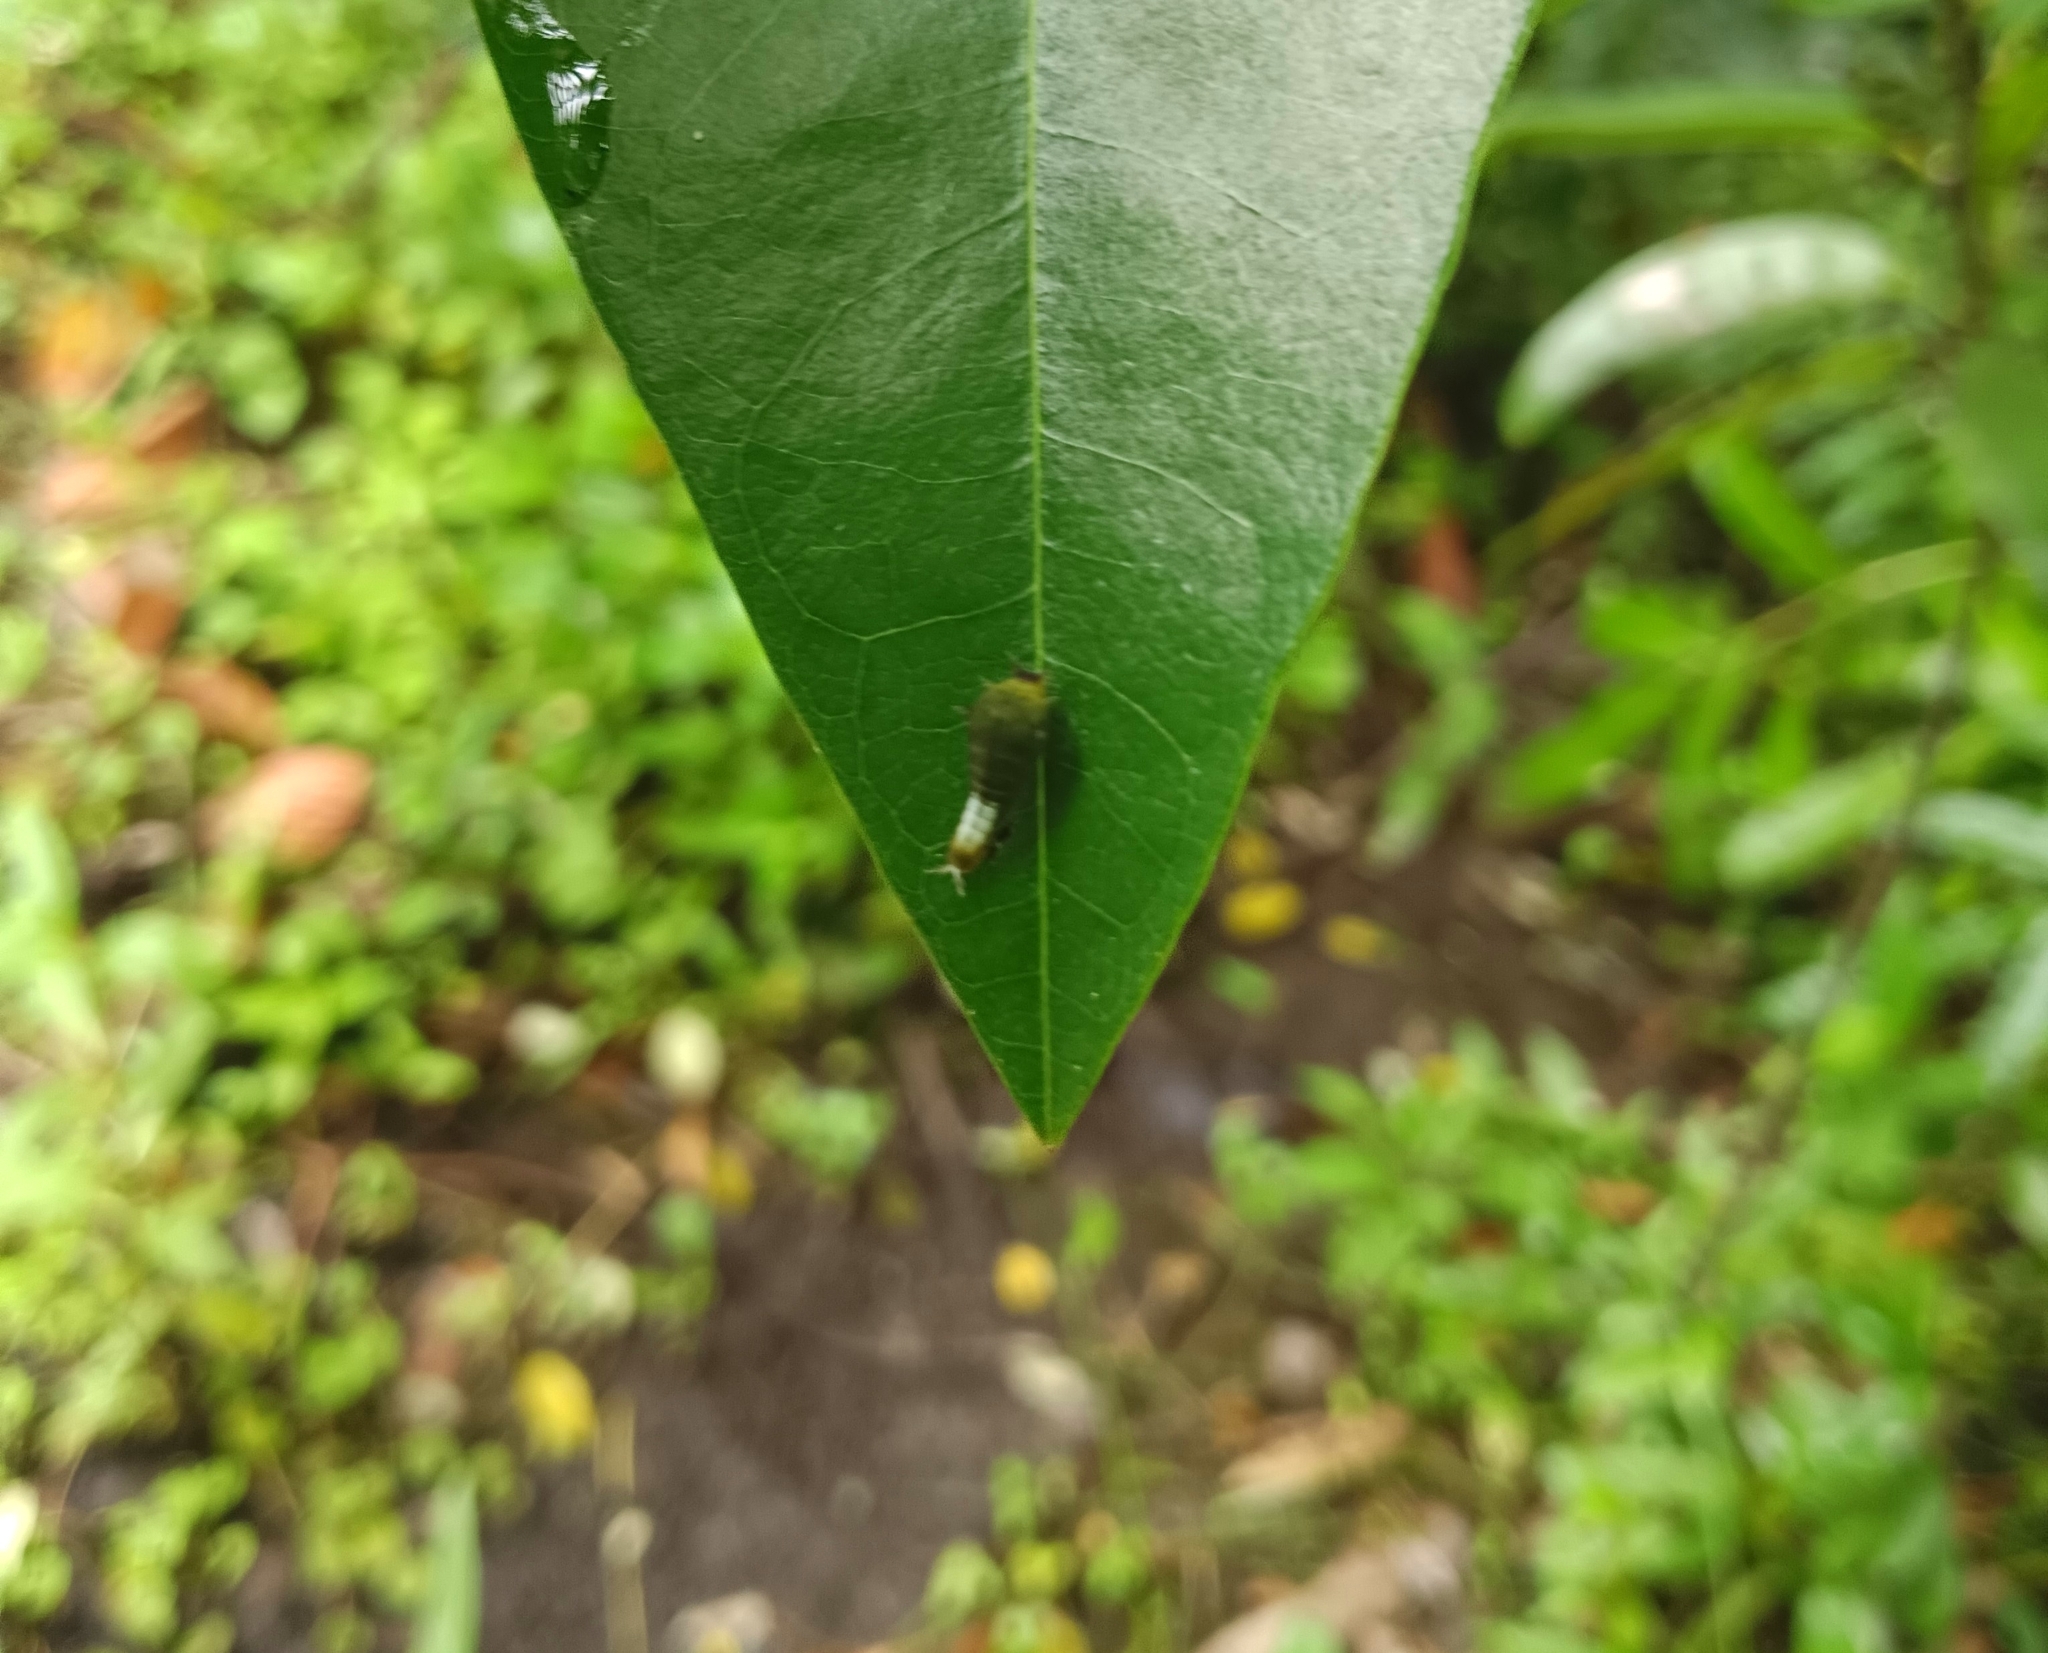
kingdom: Animalia
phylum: Arthropoda
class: Insecta
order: Lepidoptera
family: Papilionidae
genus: Graphium
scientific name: Graphium agamemnon
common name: Tailed jay
